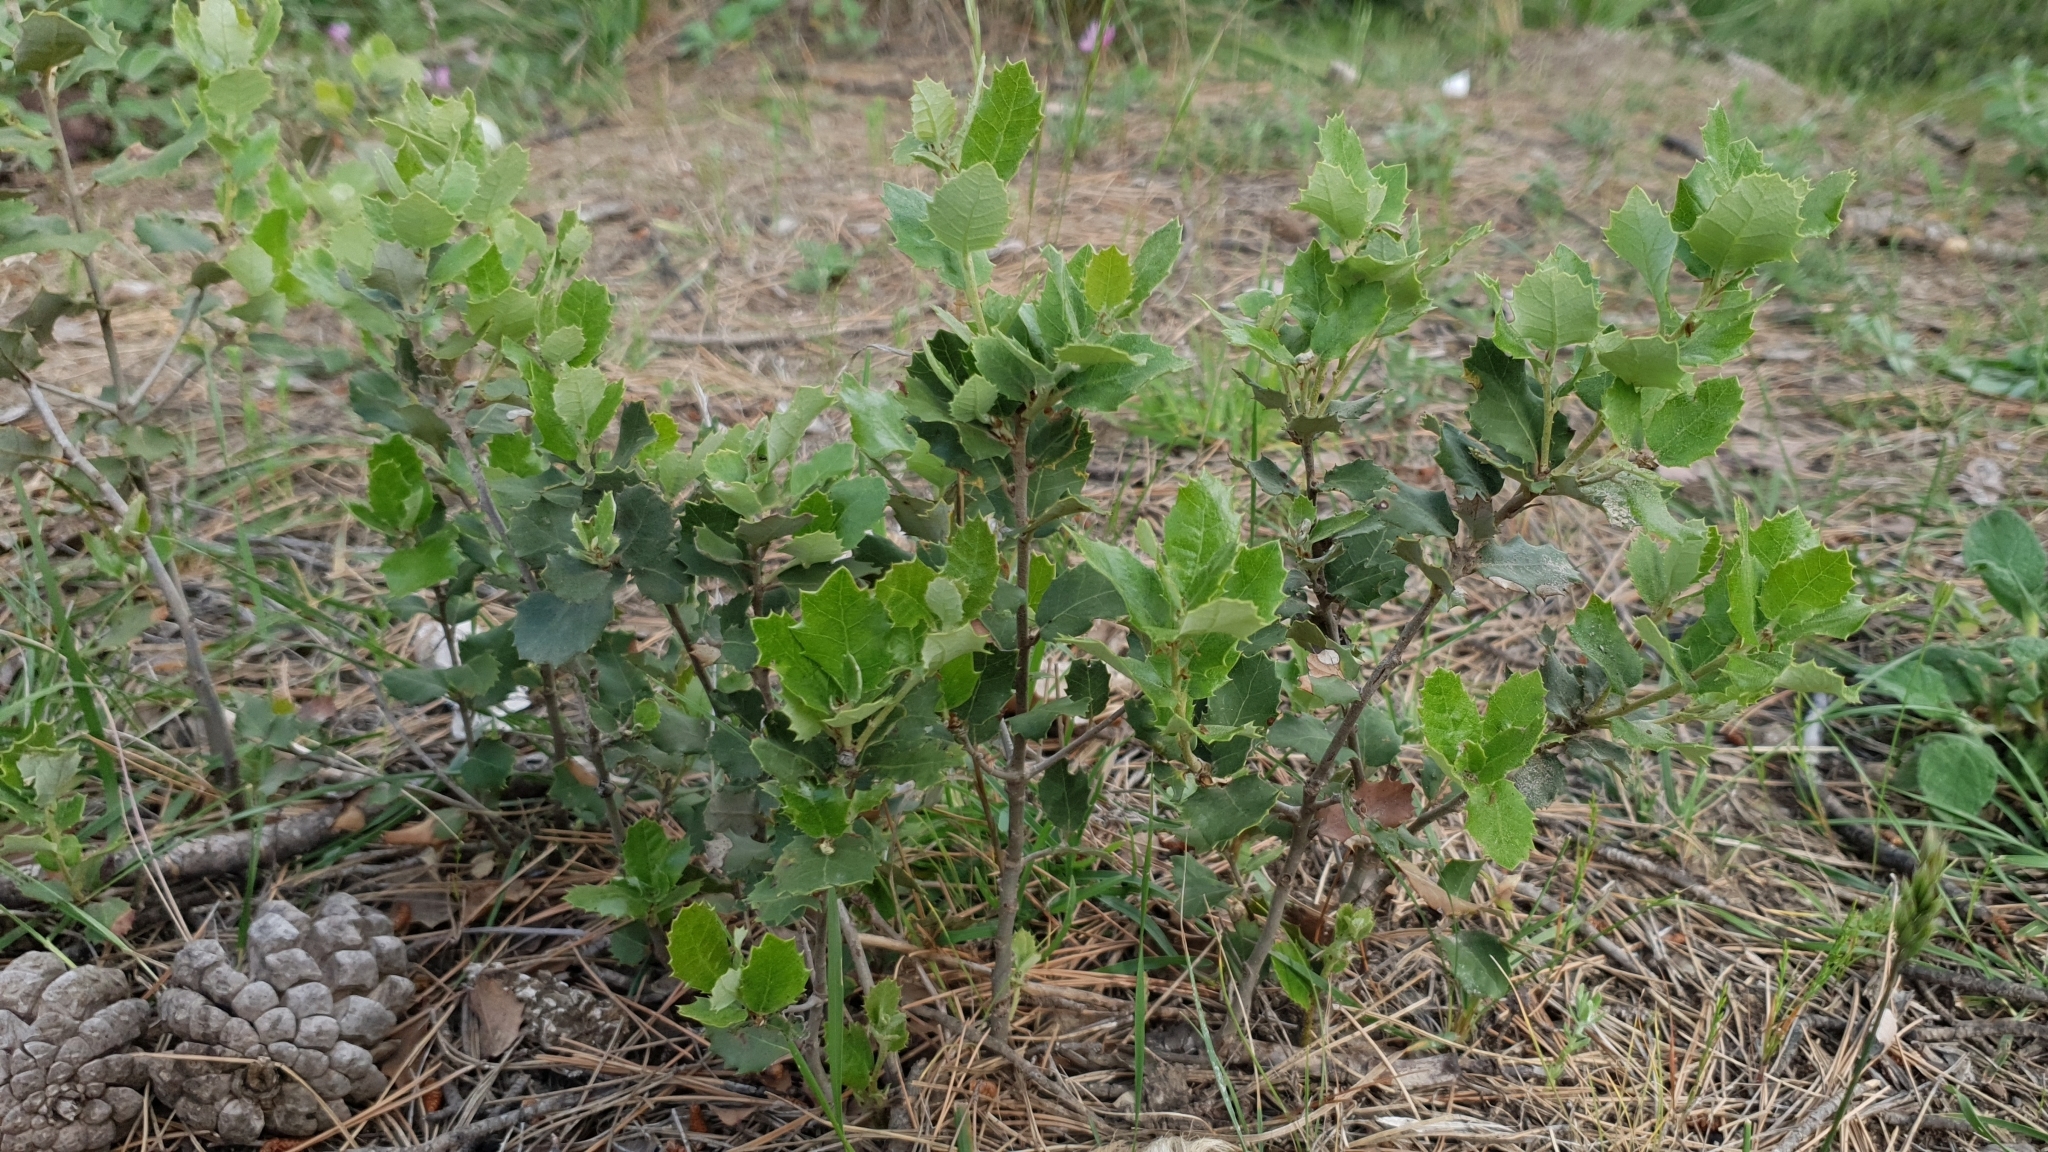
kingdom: Plantae
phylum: Tracheophyta
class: Magnoliopsida
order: Fagales
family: Fagaceae
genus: Quercus
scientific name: Quercus rotundifolia
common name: Holm oak
